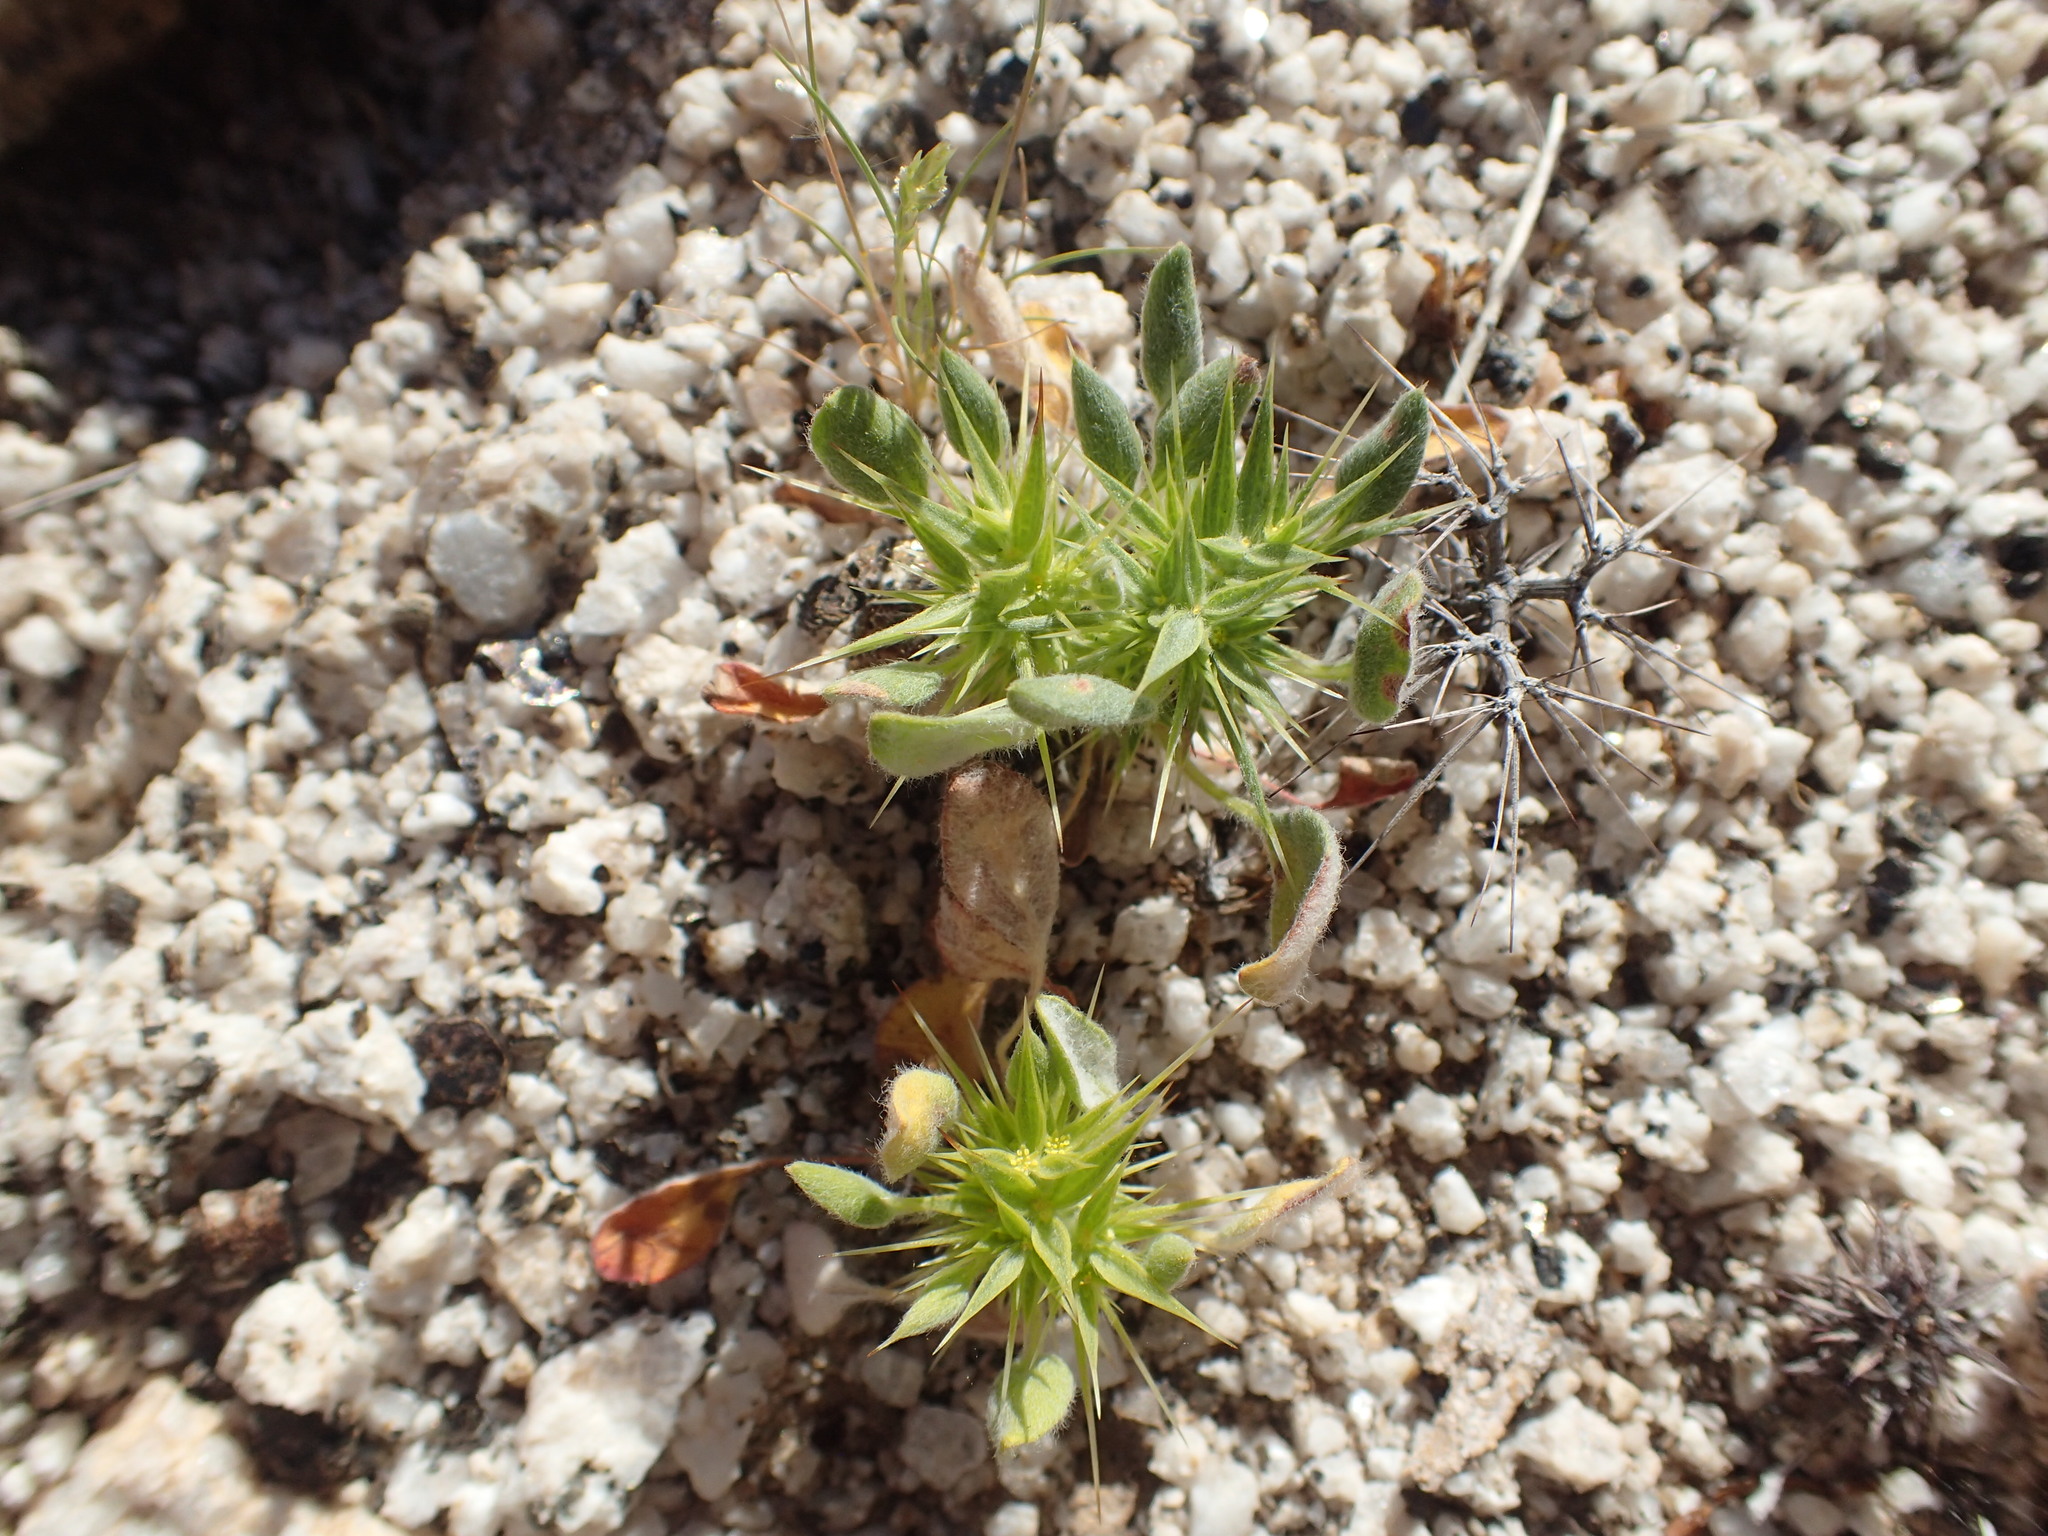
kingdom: Plantae
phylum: Tracheophyta
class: Magnoliopsida
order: Caryophyllales
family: Polygonaceae
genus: Chorizanthe
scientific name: Chorizanthe rigida
